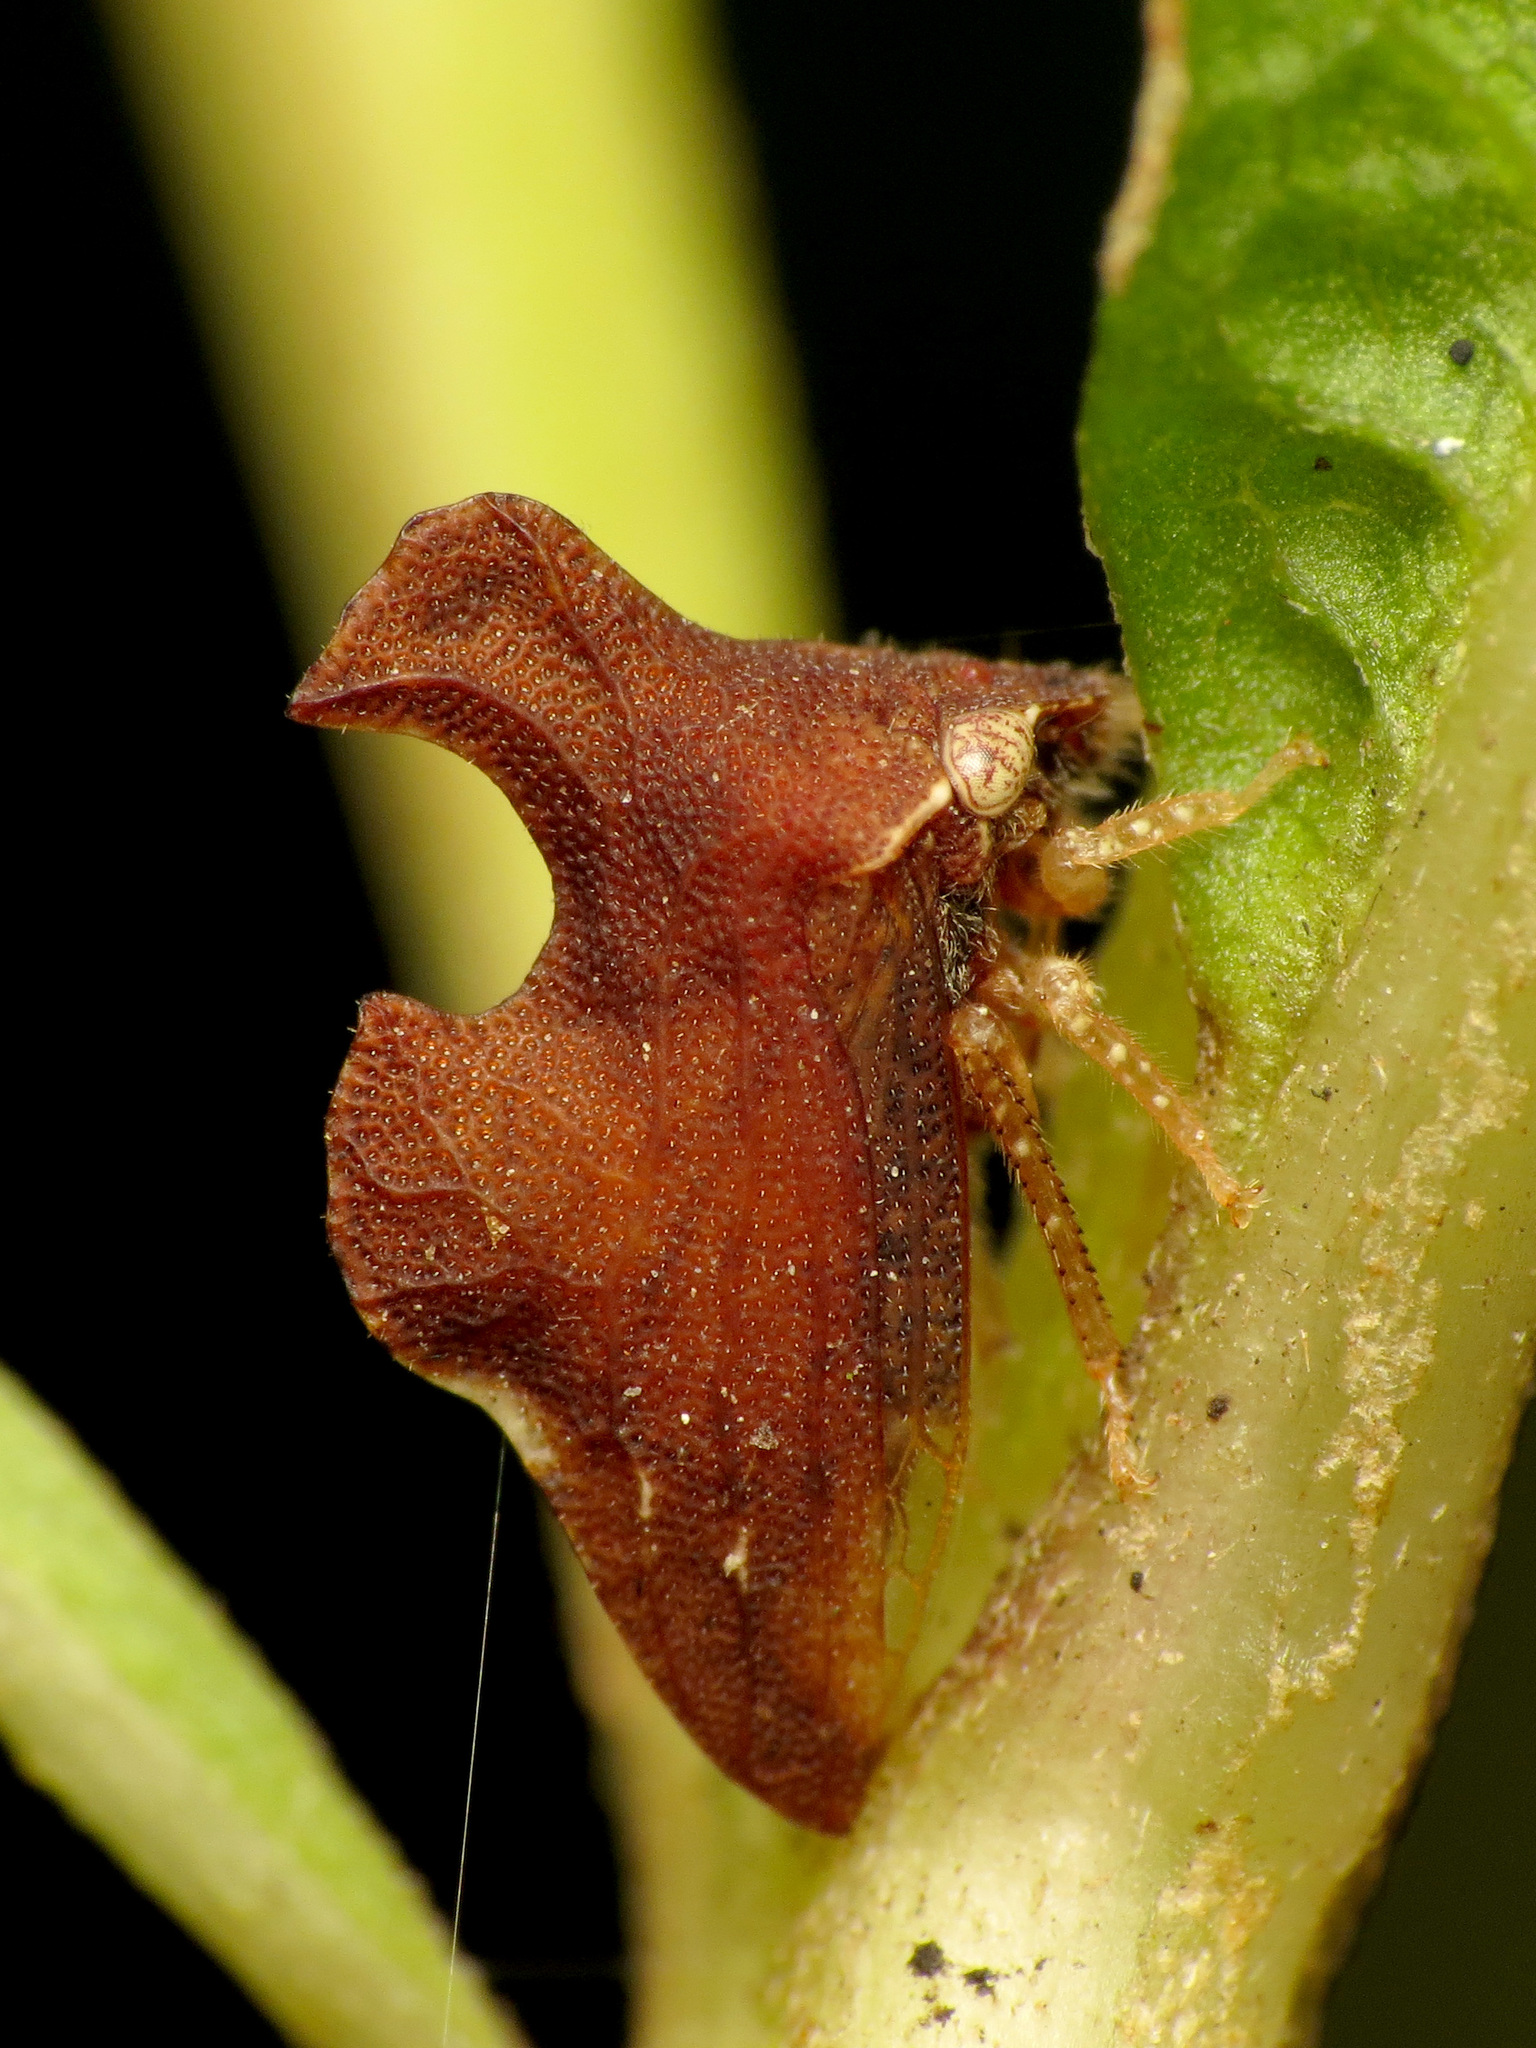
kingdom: Animalia
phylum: Arthropoda
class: Insecta
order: Hemiptera
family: Membracidae
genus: Entylia
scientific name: Entylia carinata
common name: Keeled treehopper
